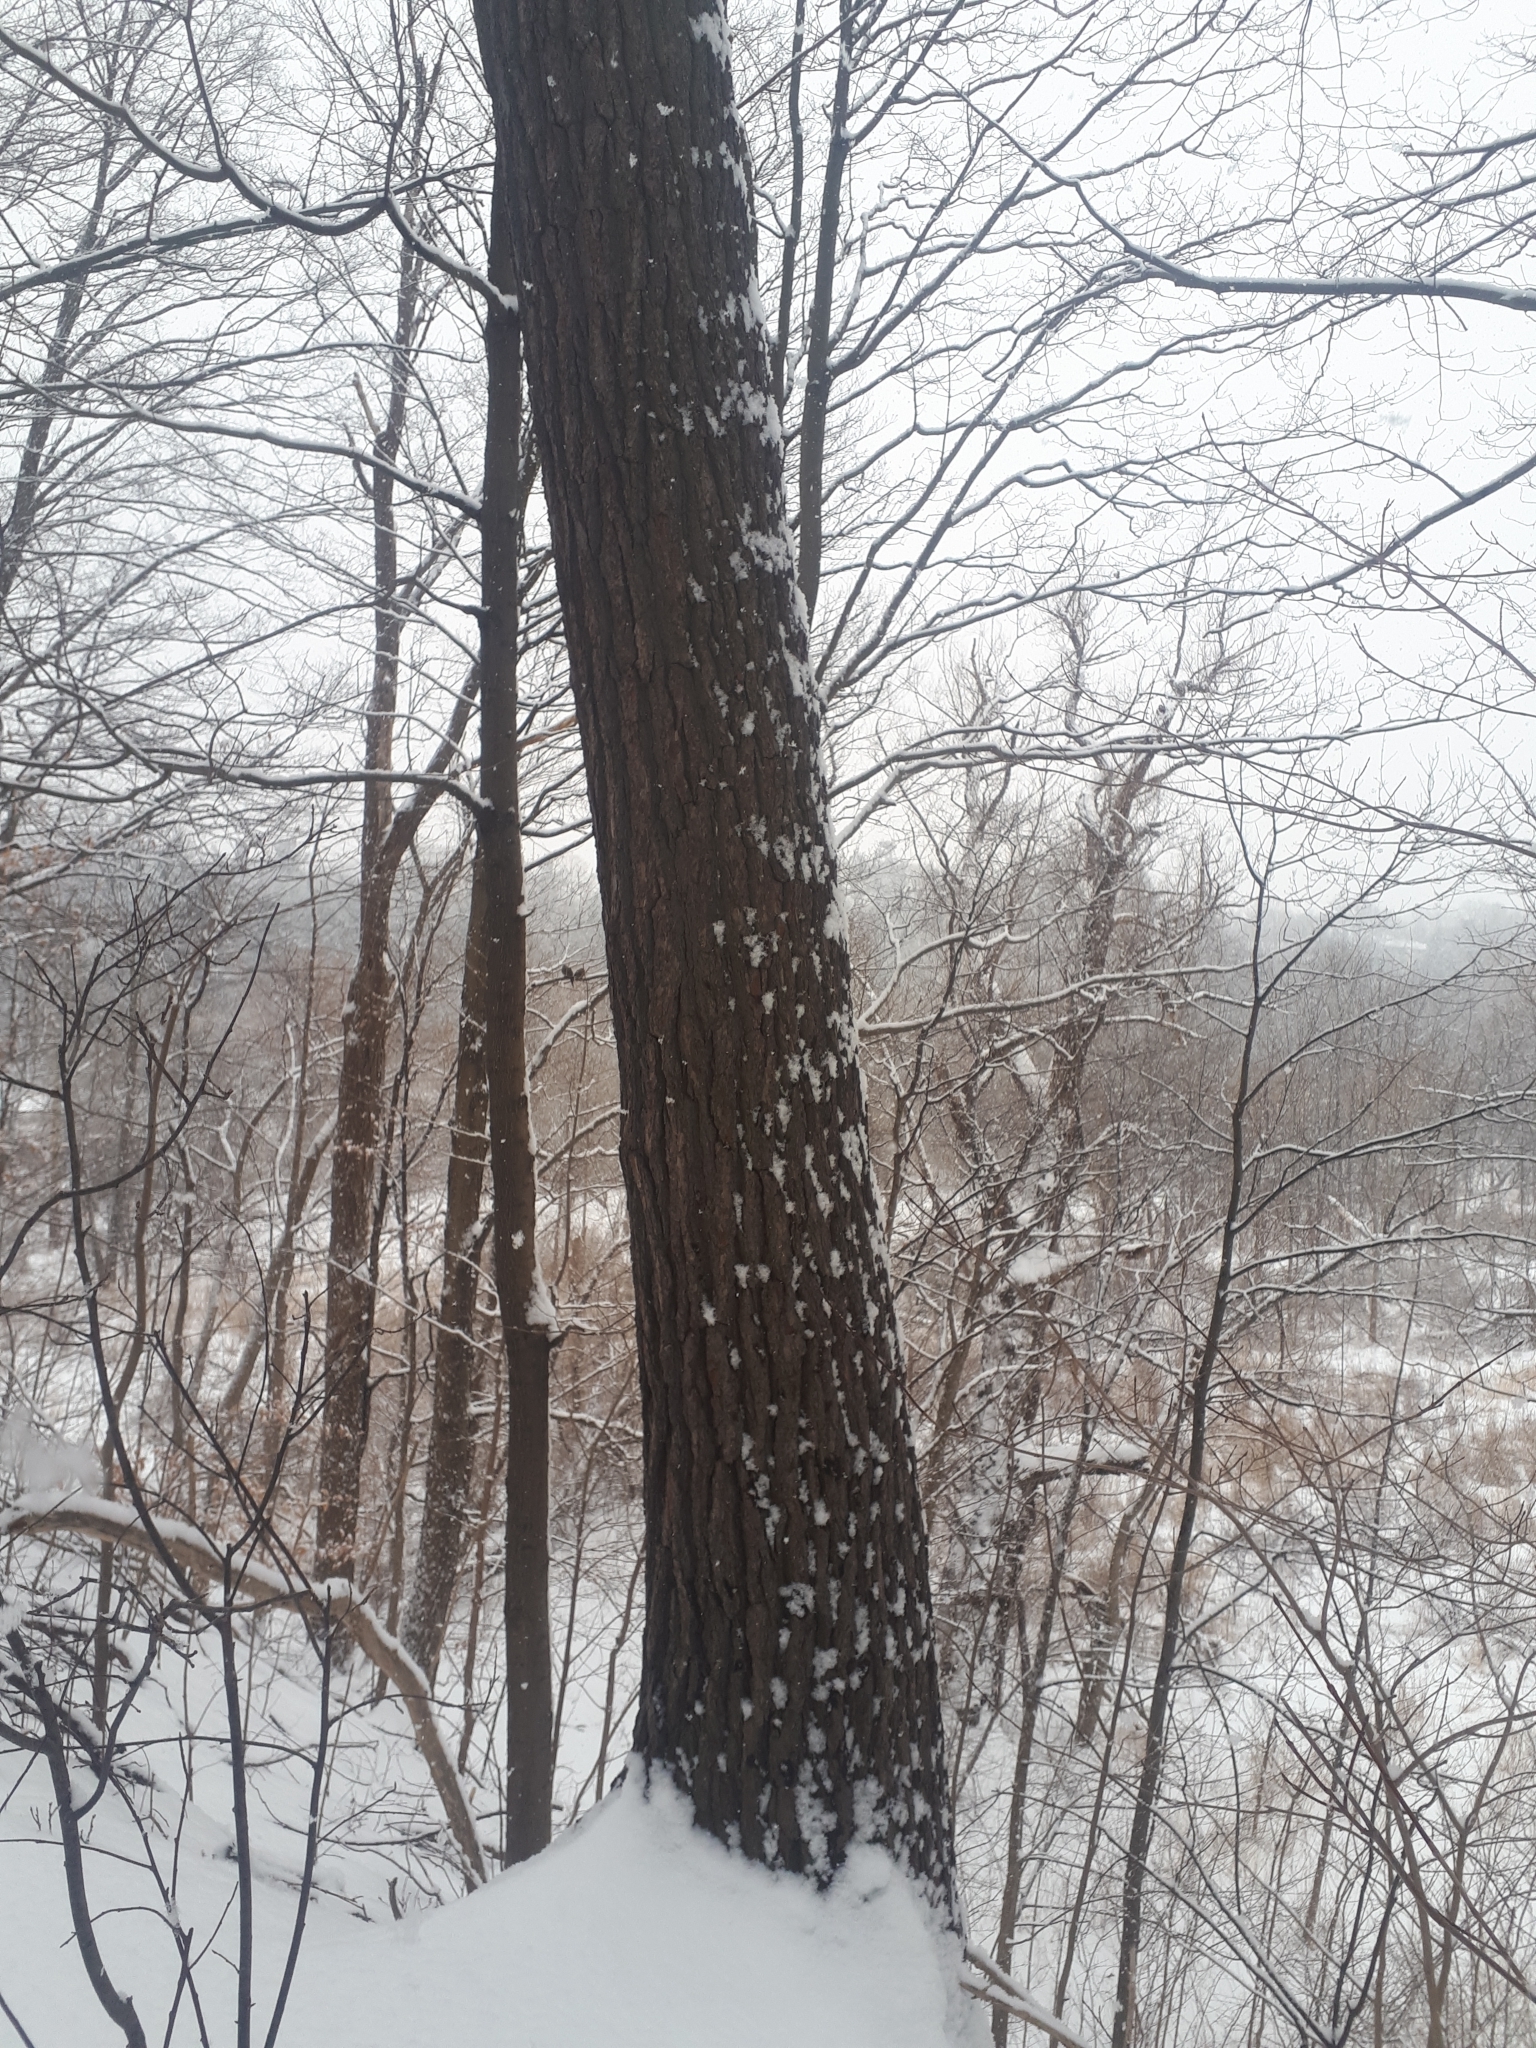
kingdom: Plantae
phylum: Tracheophyta
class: Pinopsida
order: Pinales
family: Pinaceae
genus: Pinus
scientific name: Pinus strobus
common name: Weymouth pine
